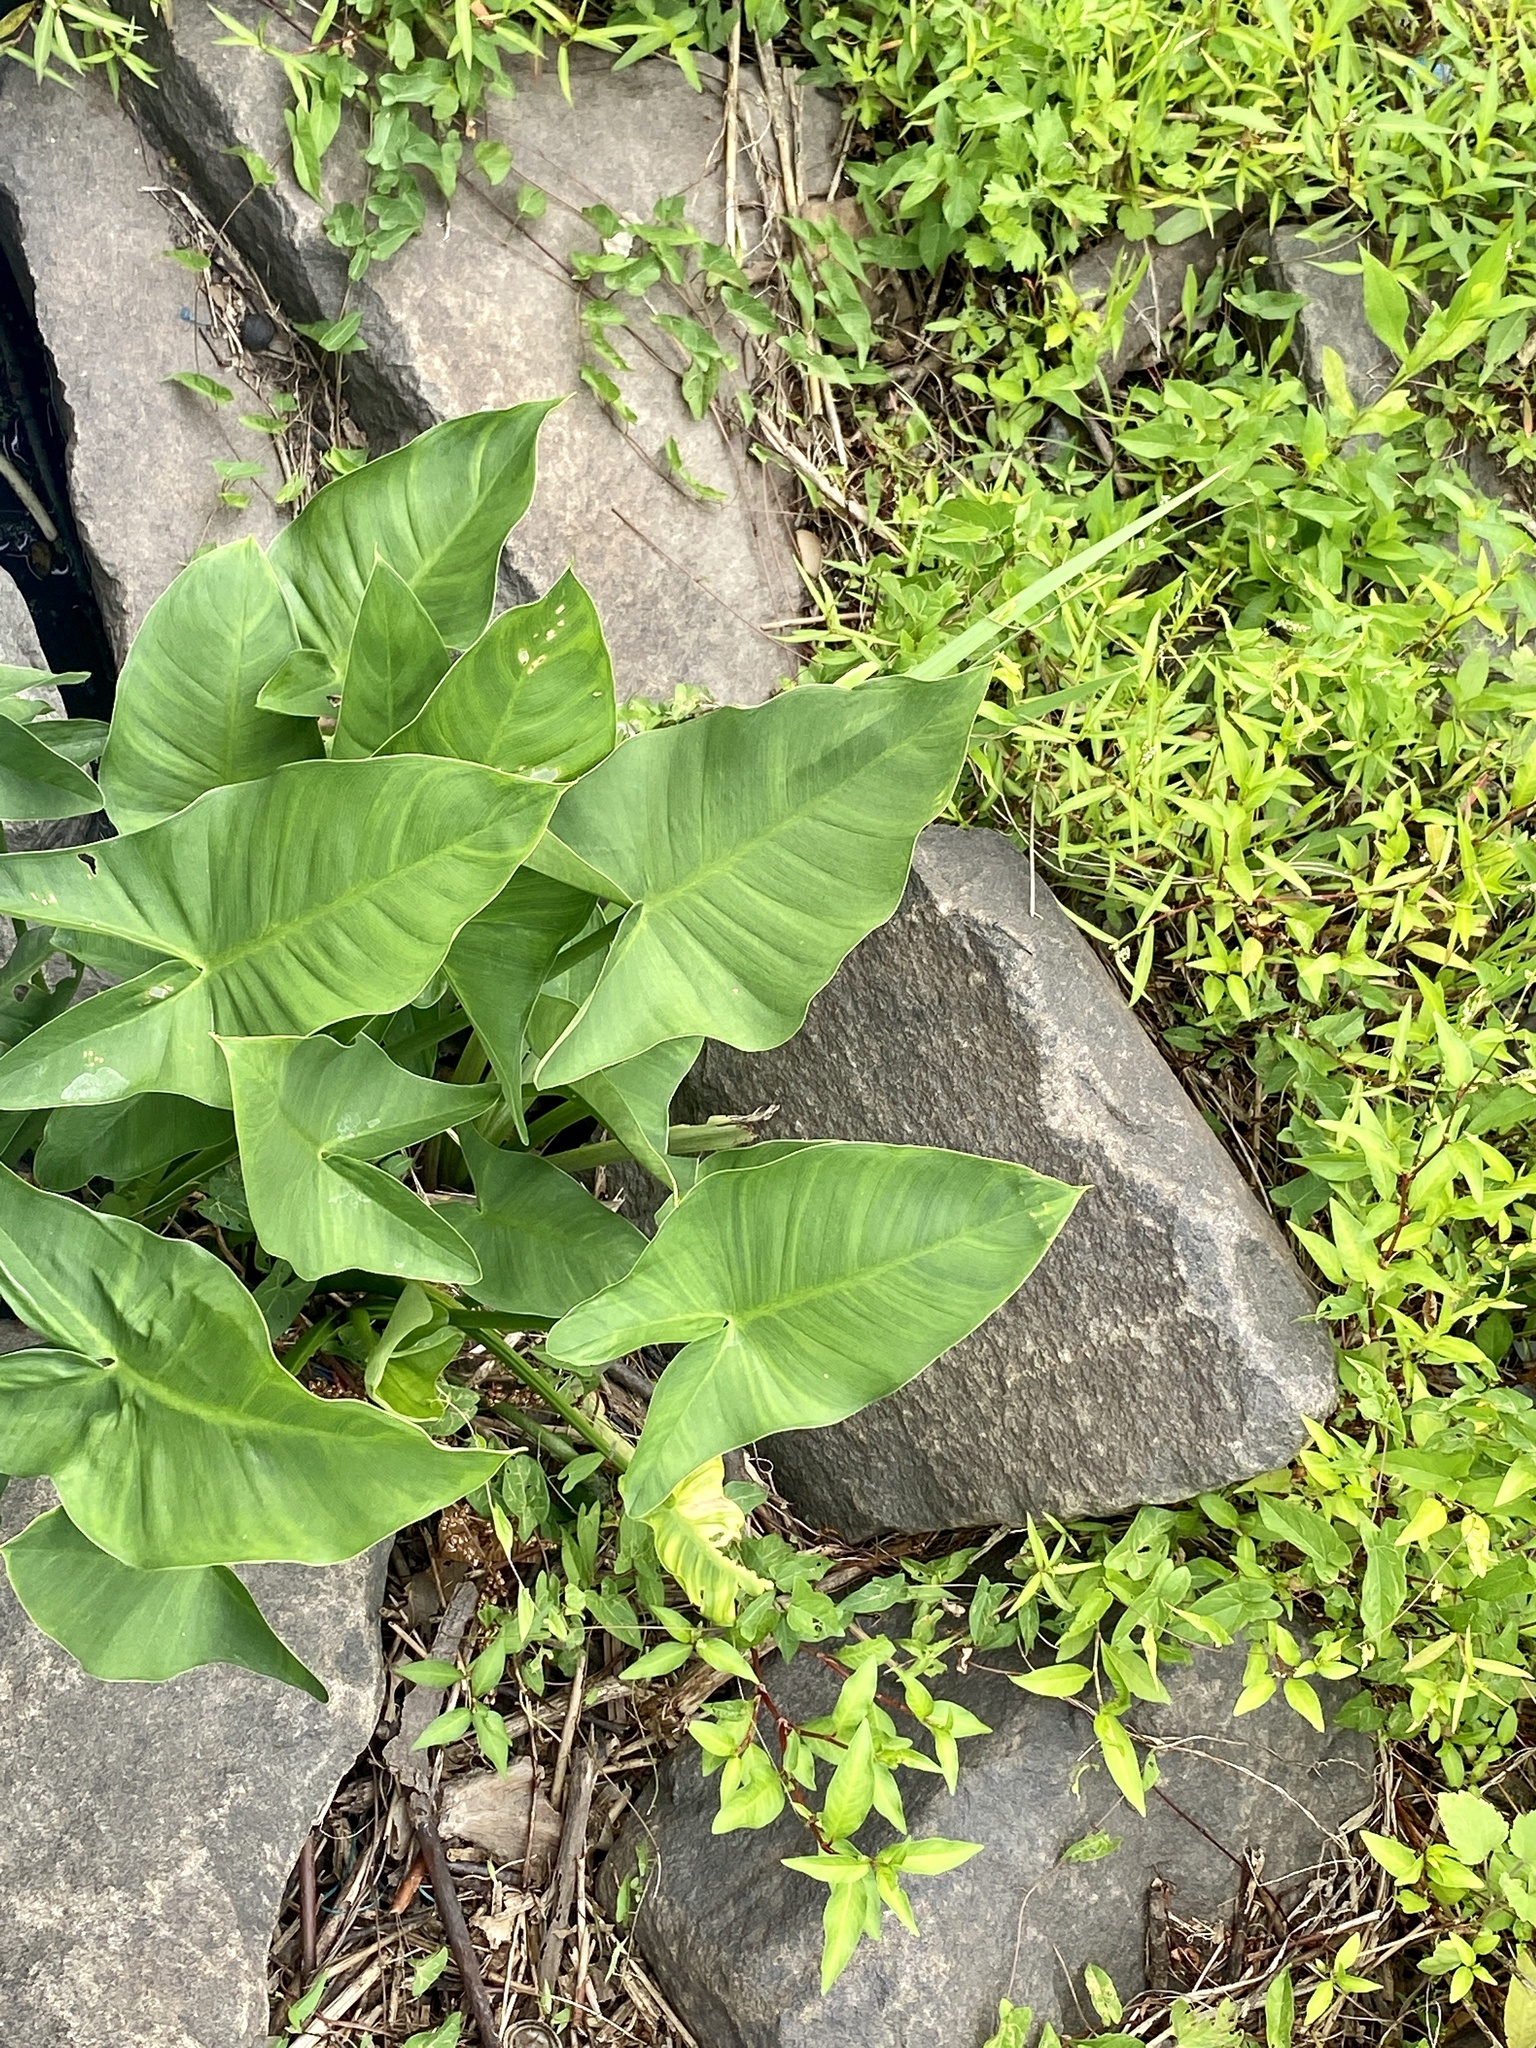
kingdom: Plantae
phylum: Tracheophyta
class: Liliopsida
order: Alismatales
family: Araceae
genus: Peltandra
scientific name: Peltandra virginica
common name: Arrow arum
